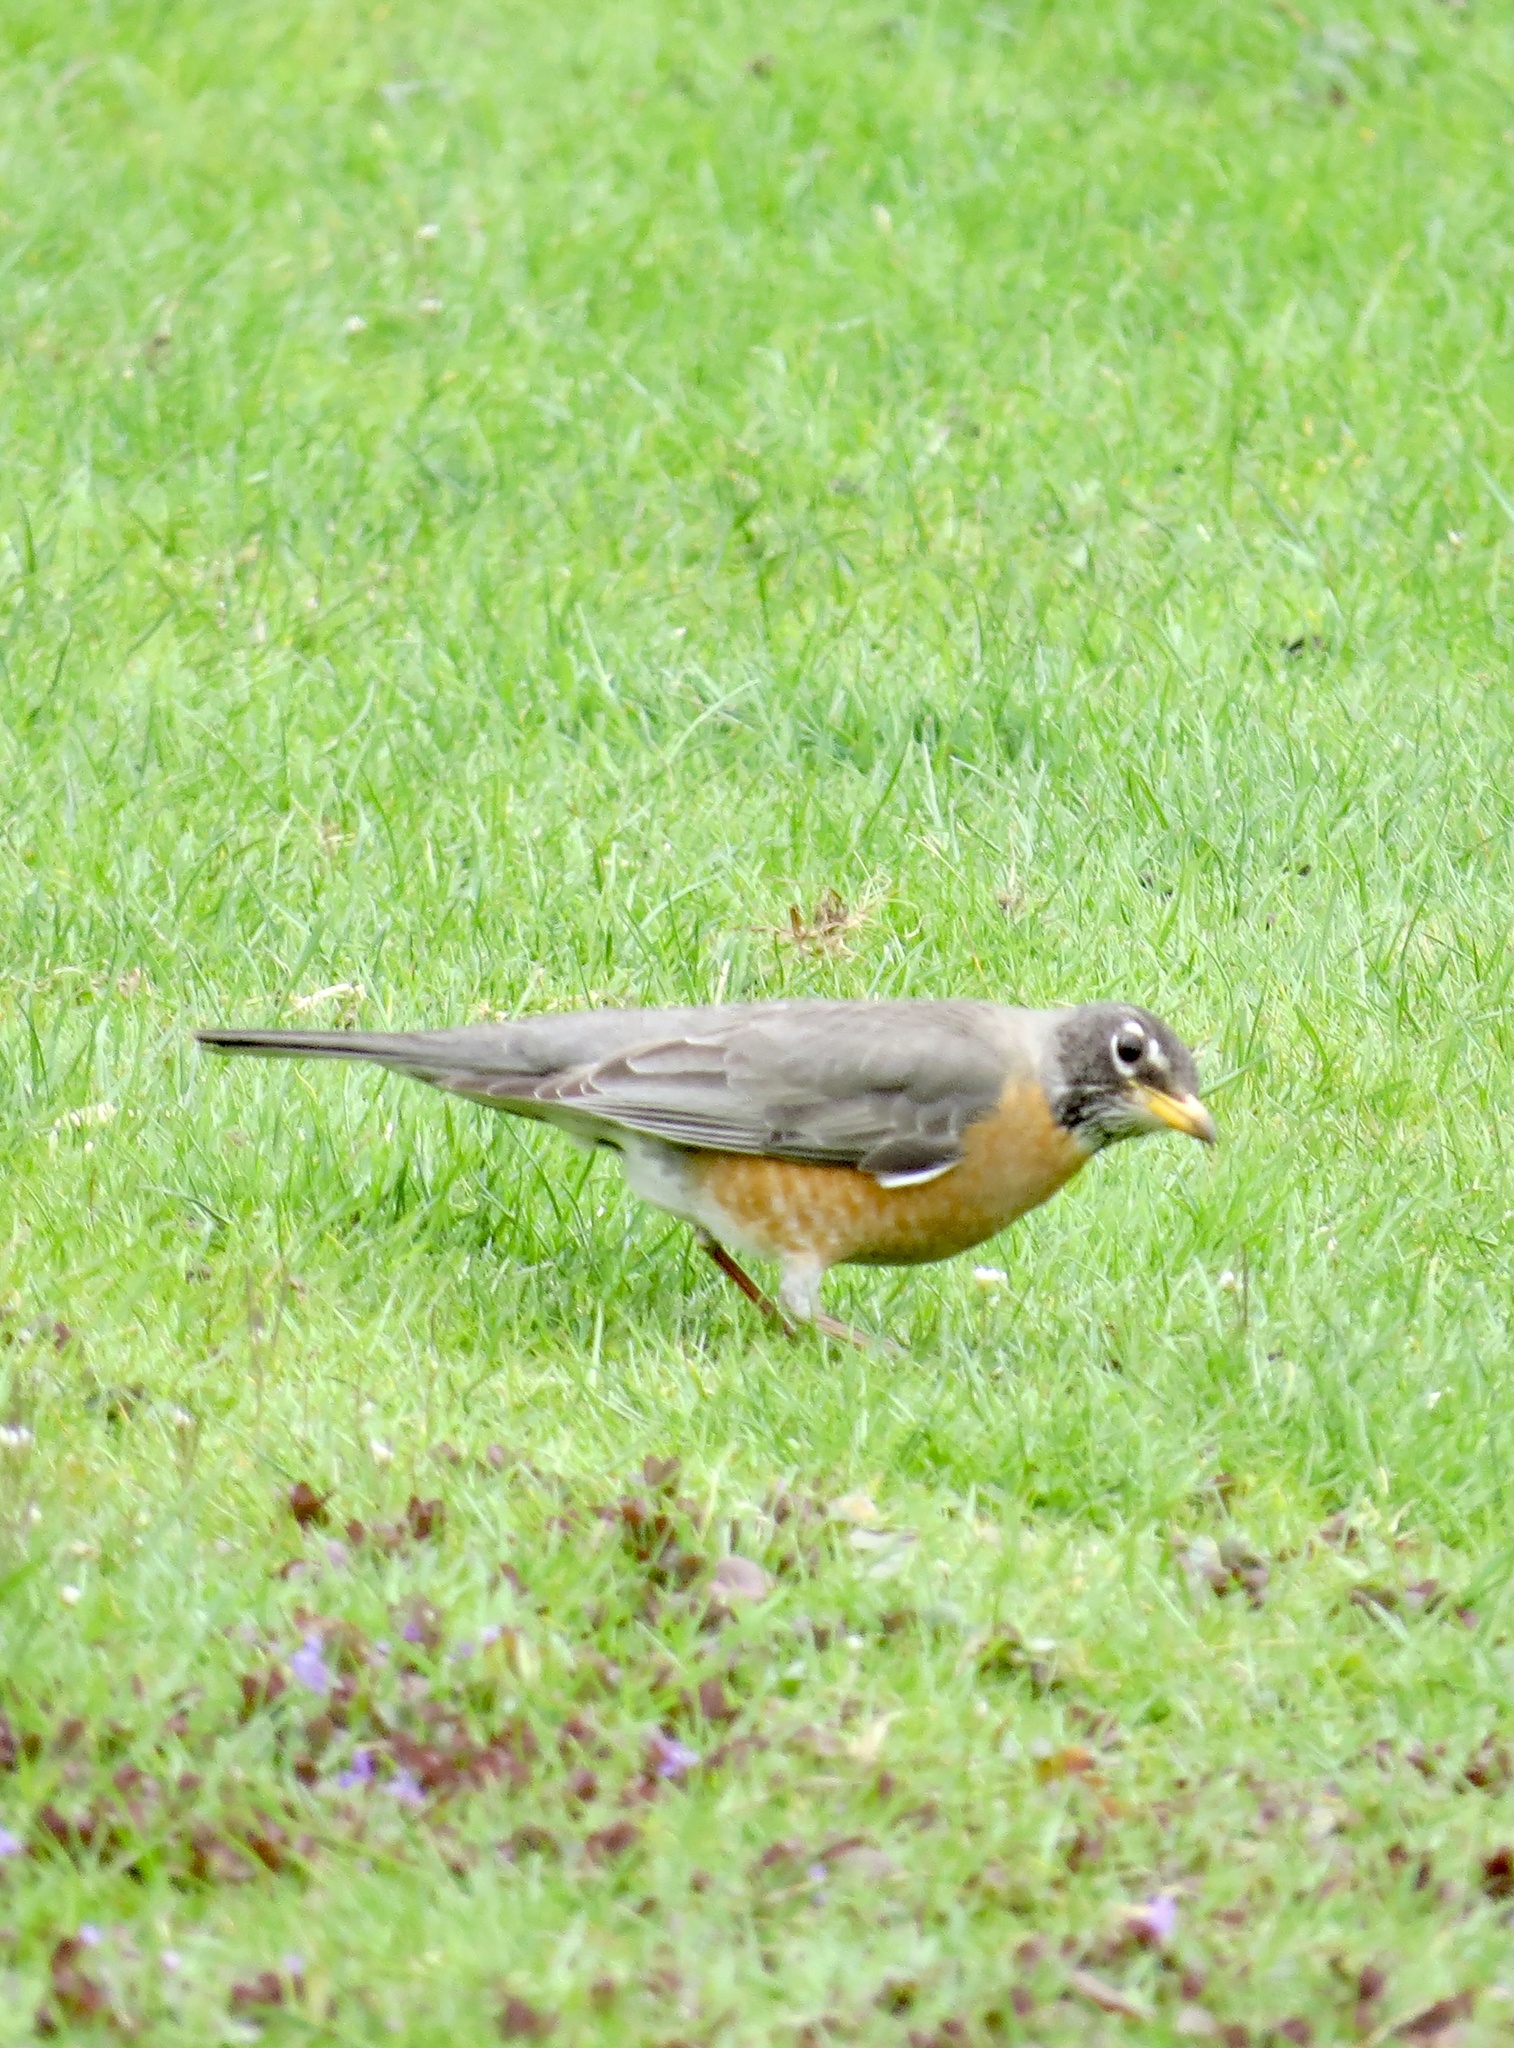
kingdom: Animalia
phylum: Chordata
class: Aves
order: Passeriformes
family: Turdidae
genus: Turdus
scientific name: Turdus migratorius
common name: American robin
